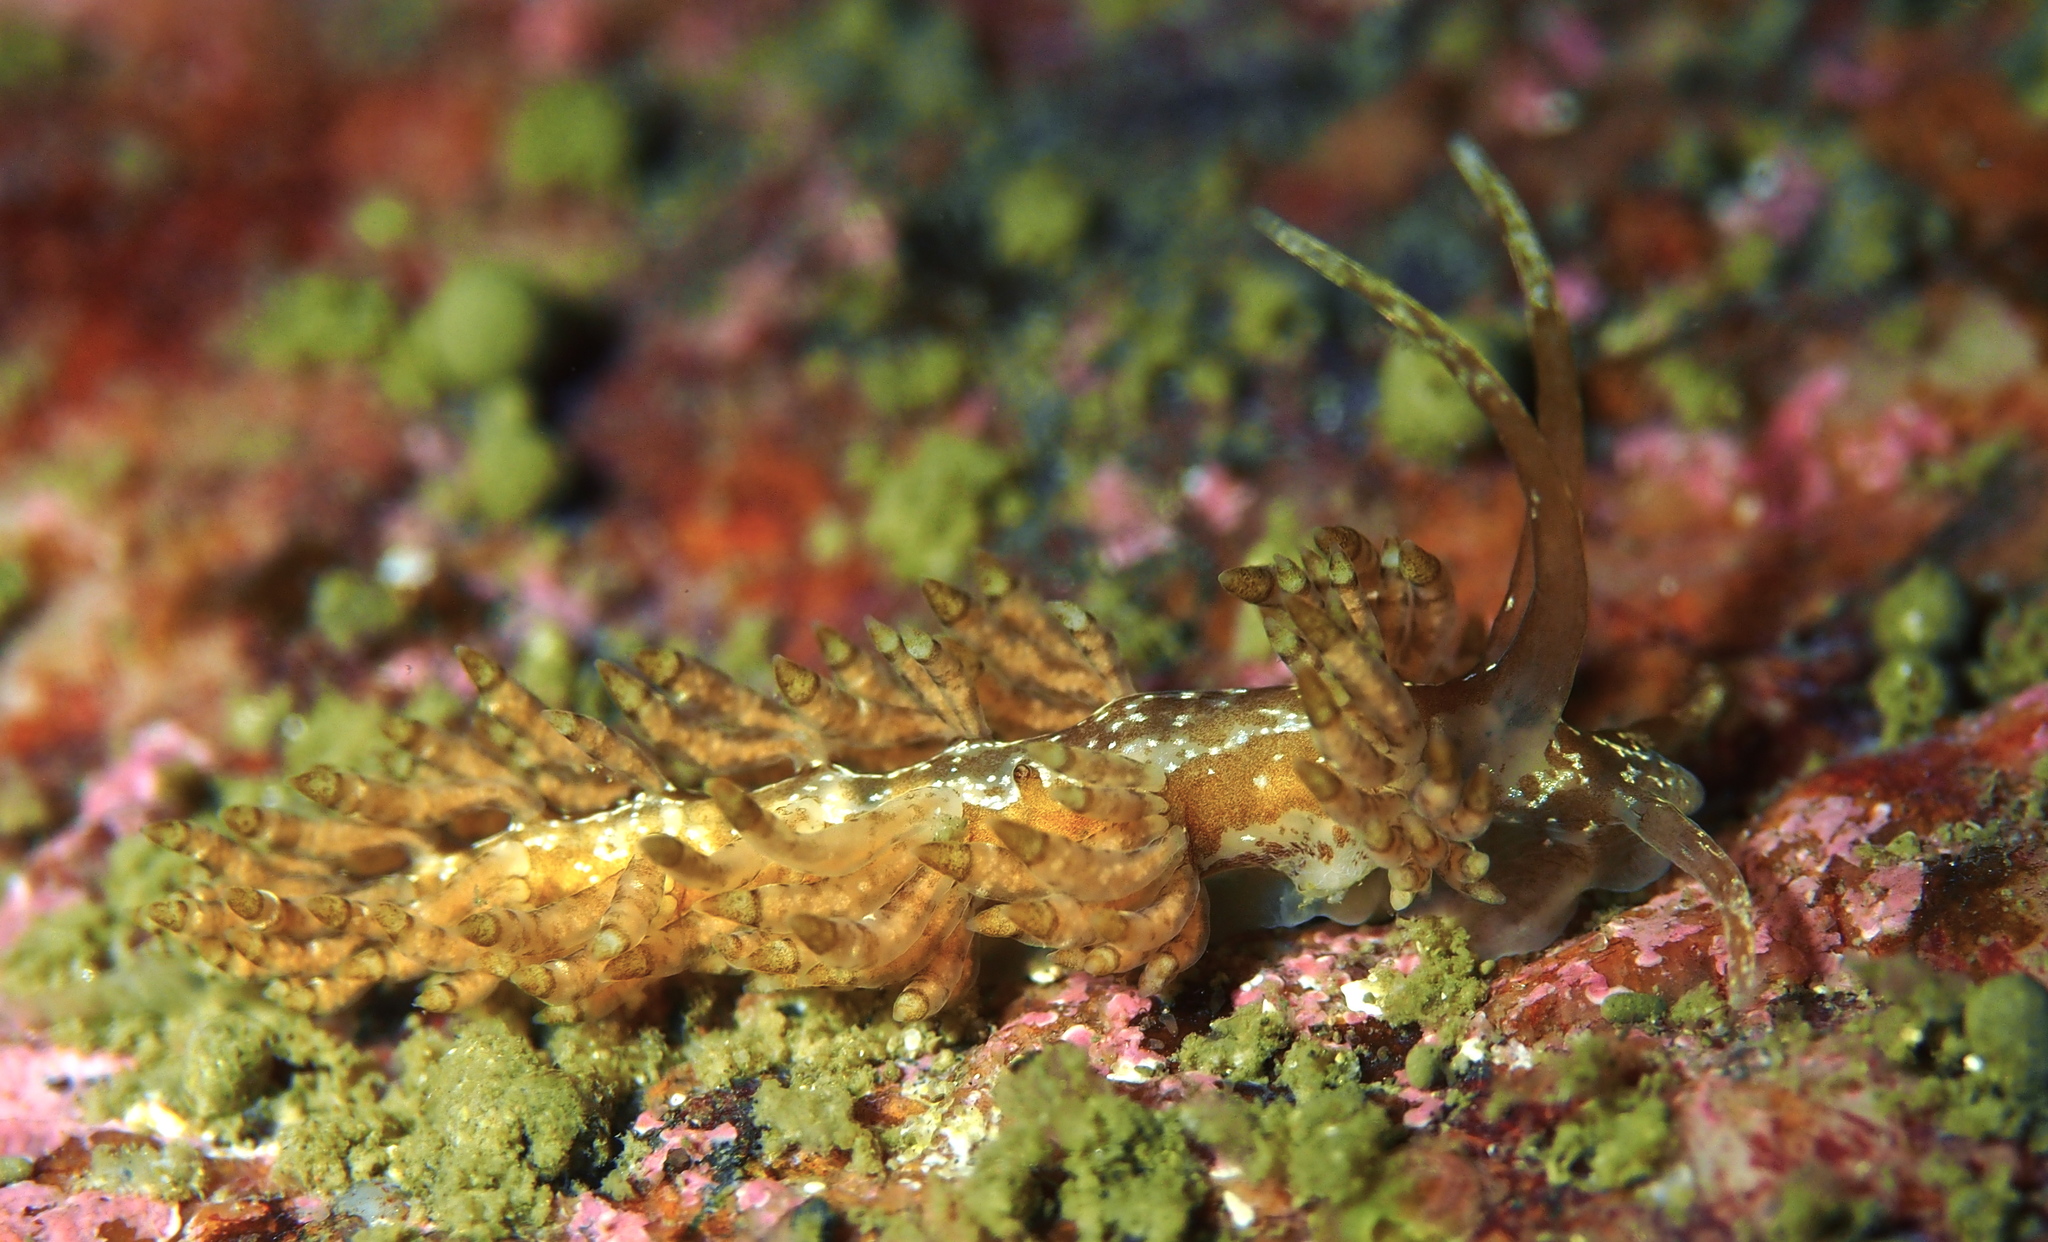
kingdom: Animalia
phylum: Mollusca
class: Gastropoda
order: Nudibranchia
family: Eubranchidae
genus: Eubranchus
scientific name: Eubranchus vittatus
